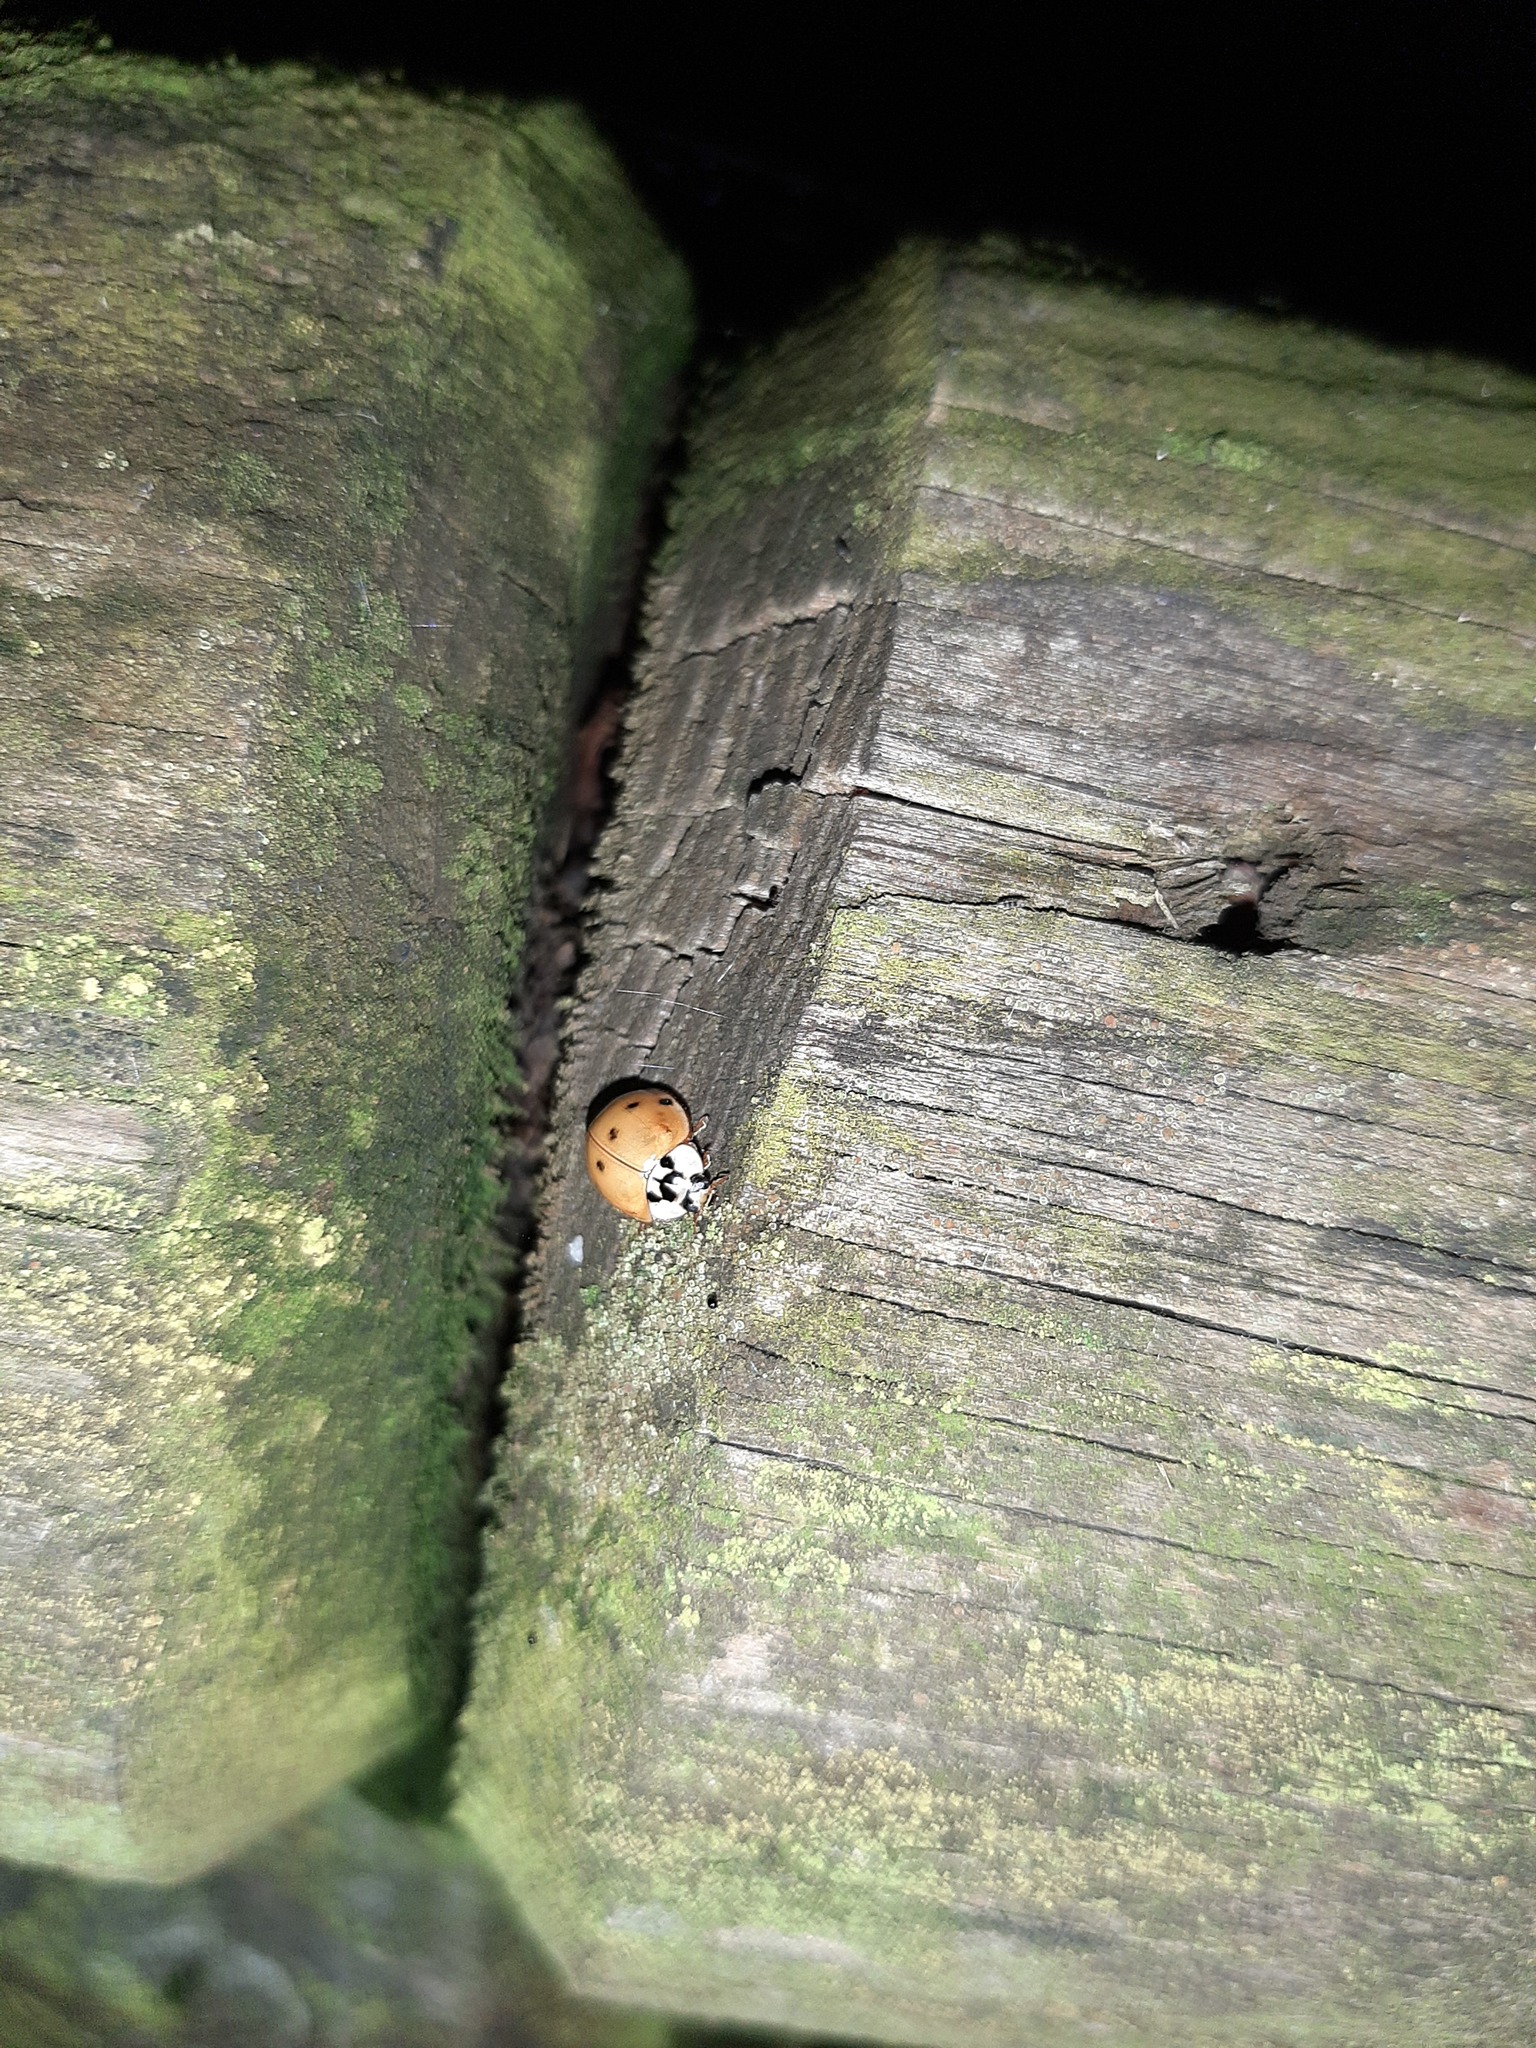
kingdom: Animalia
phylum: Arthropoda
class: Insecta
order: Coleoptera
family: Coccinellidae
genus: Harmonia
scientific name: Harmonia axyridis
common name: Harlequin ladybird
